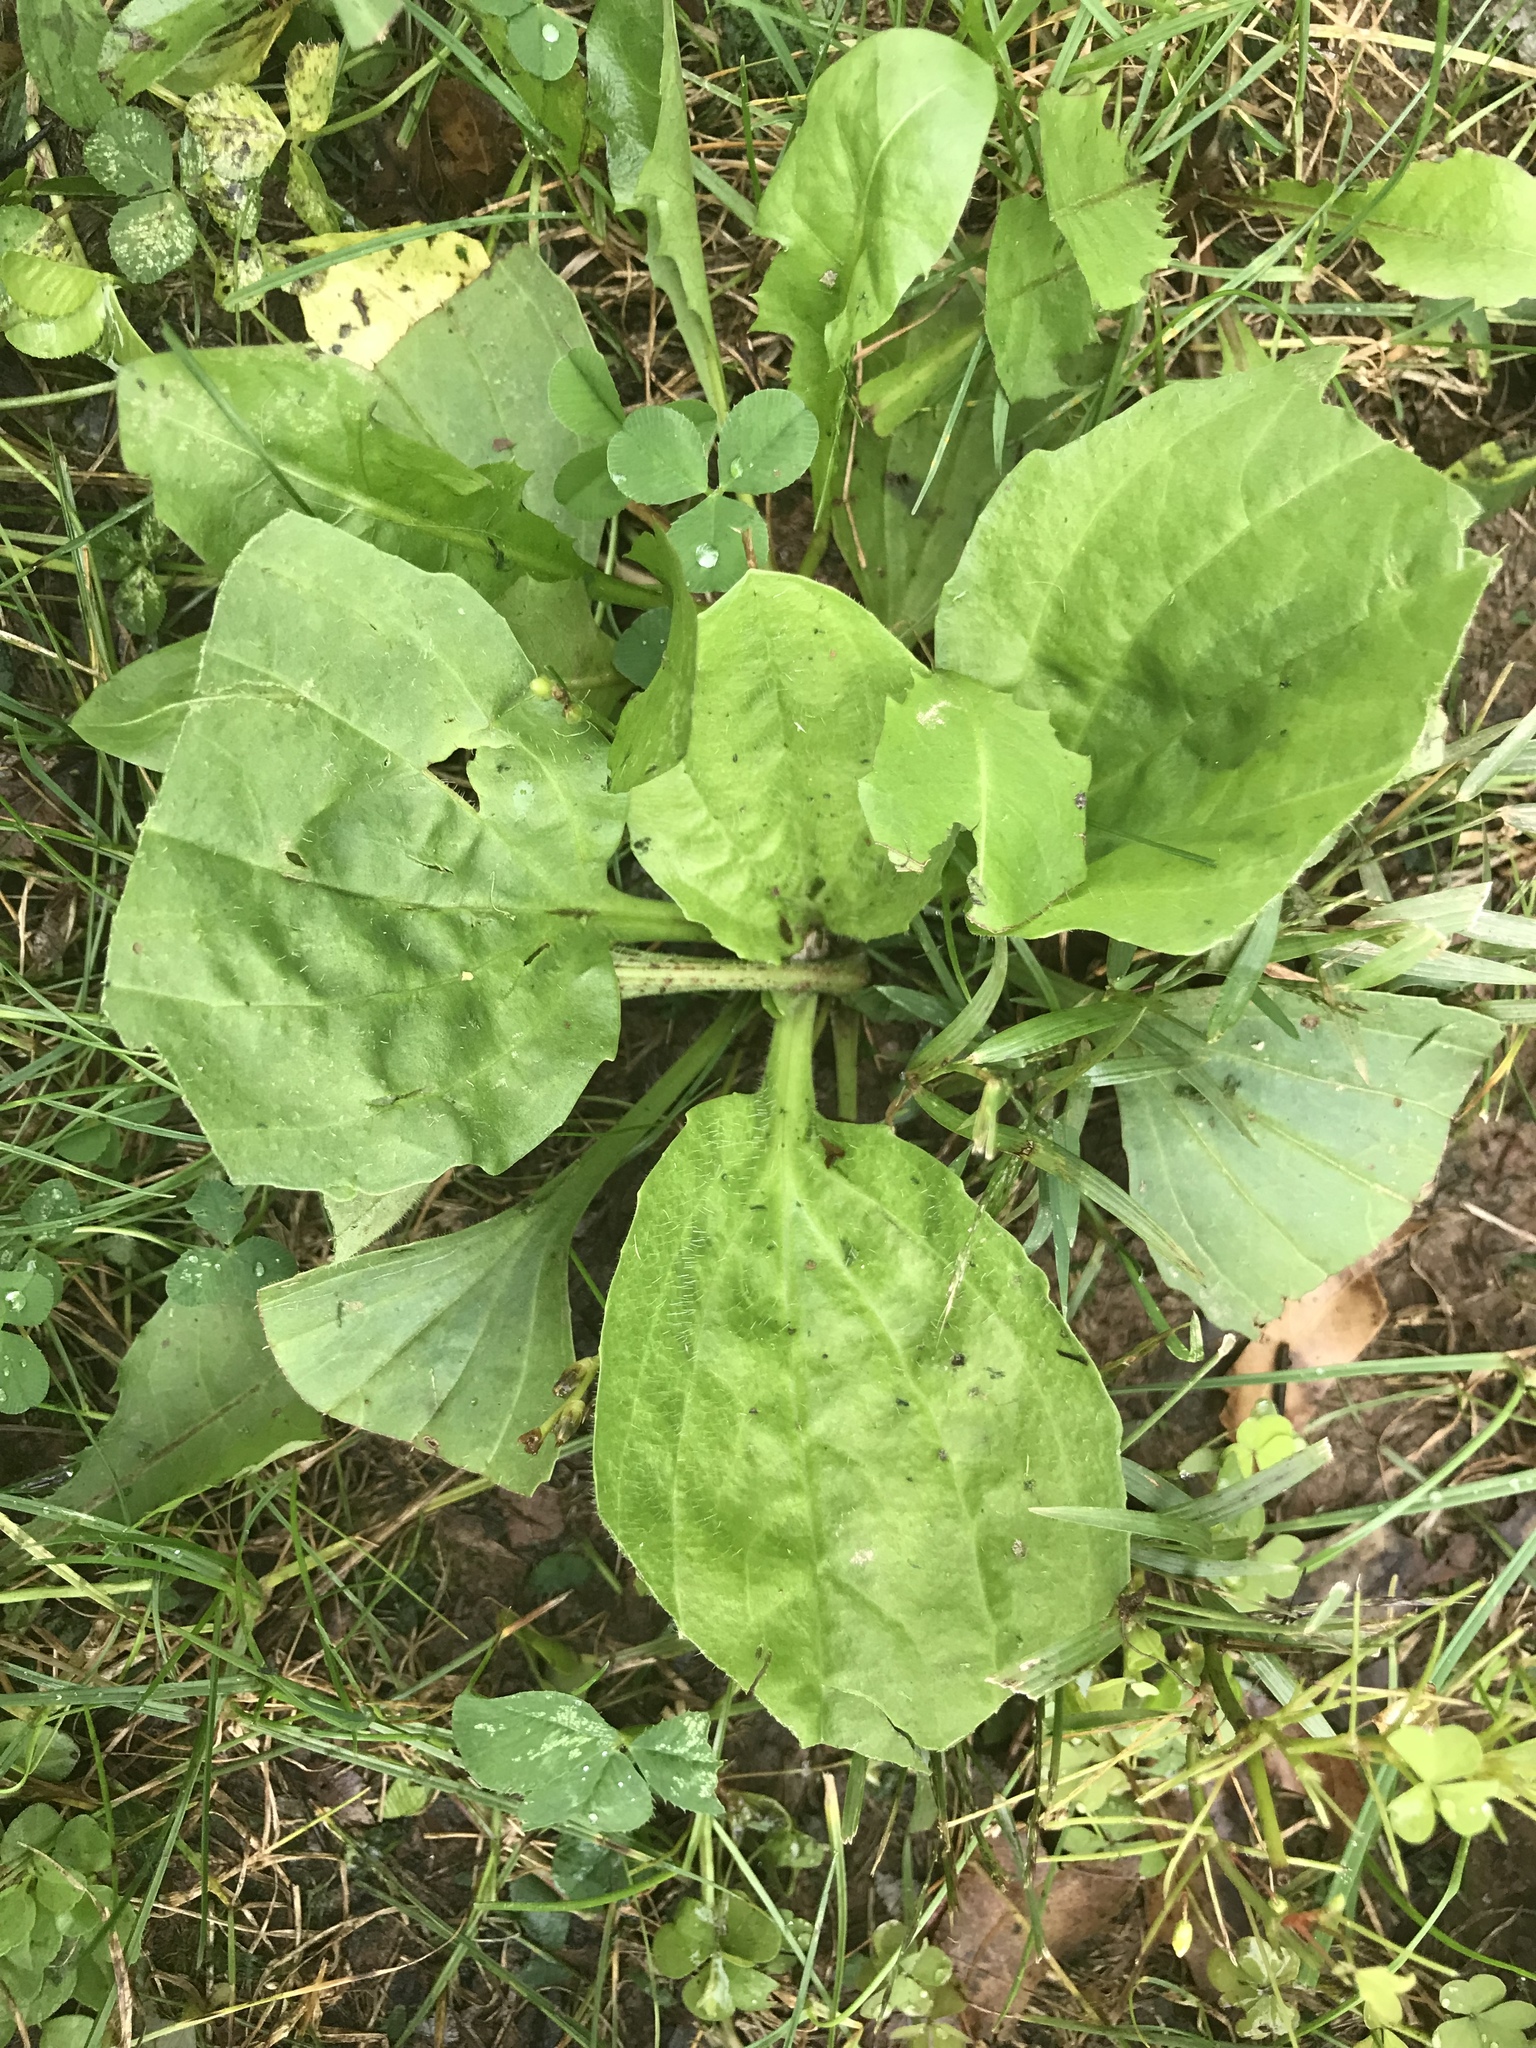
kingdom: Plantae
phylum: Tracheophyta
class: Magnoliopsida
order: Lamiales
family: Plantaginaceae
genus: Plantago
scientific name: Plantago major
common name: Common plantain
